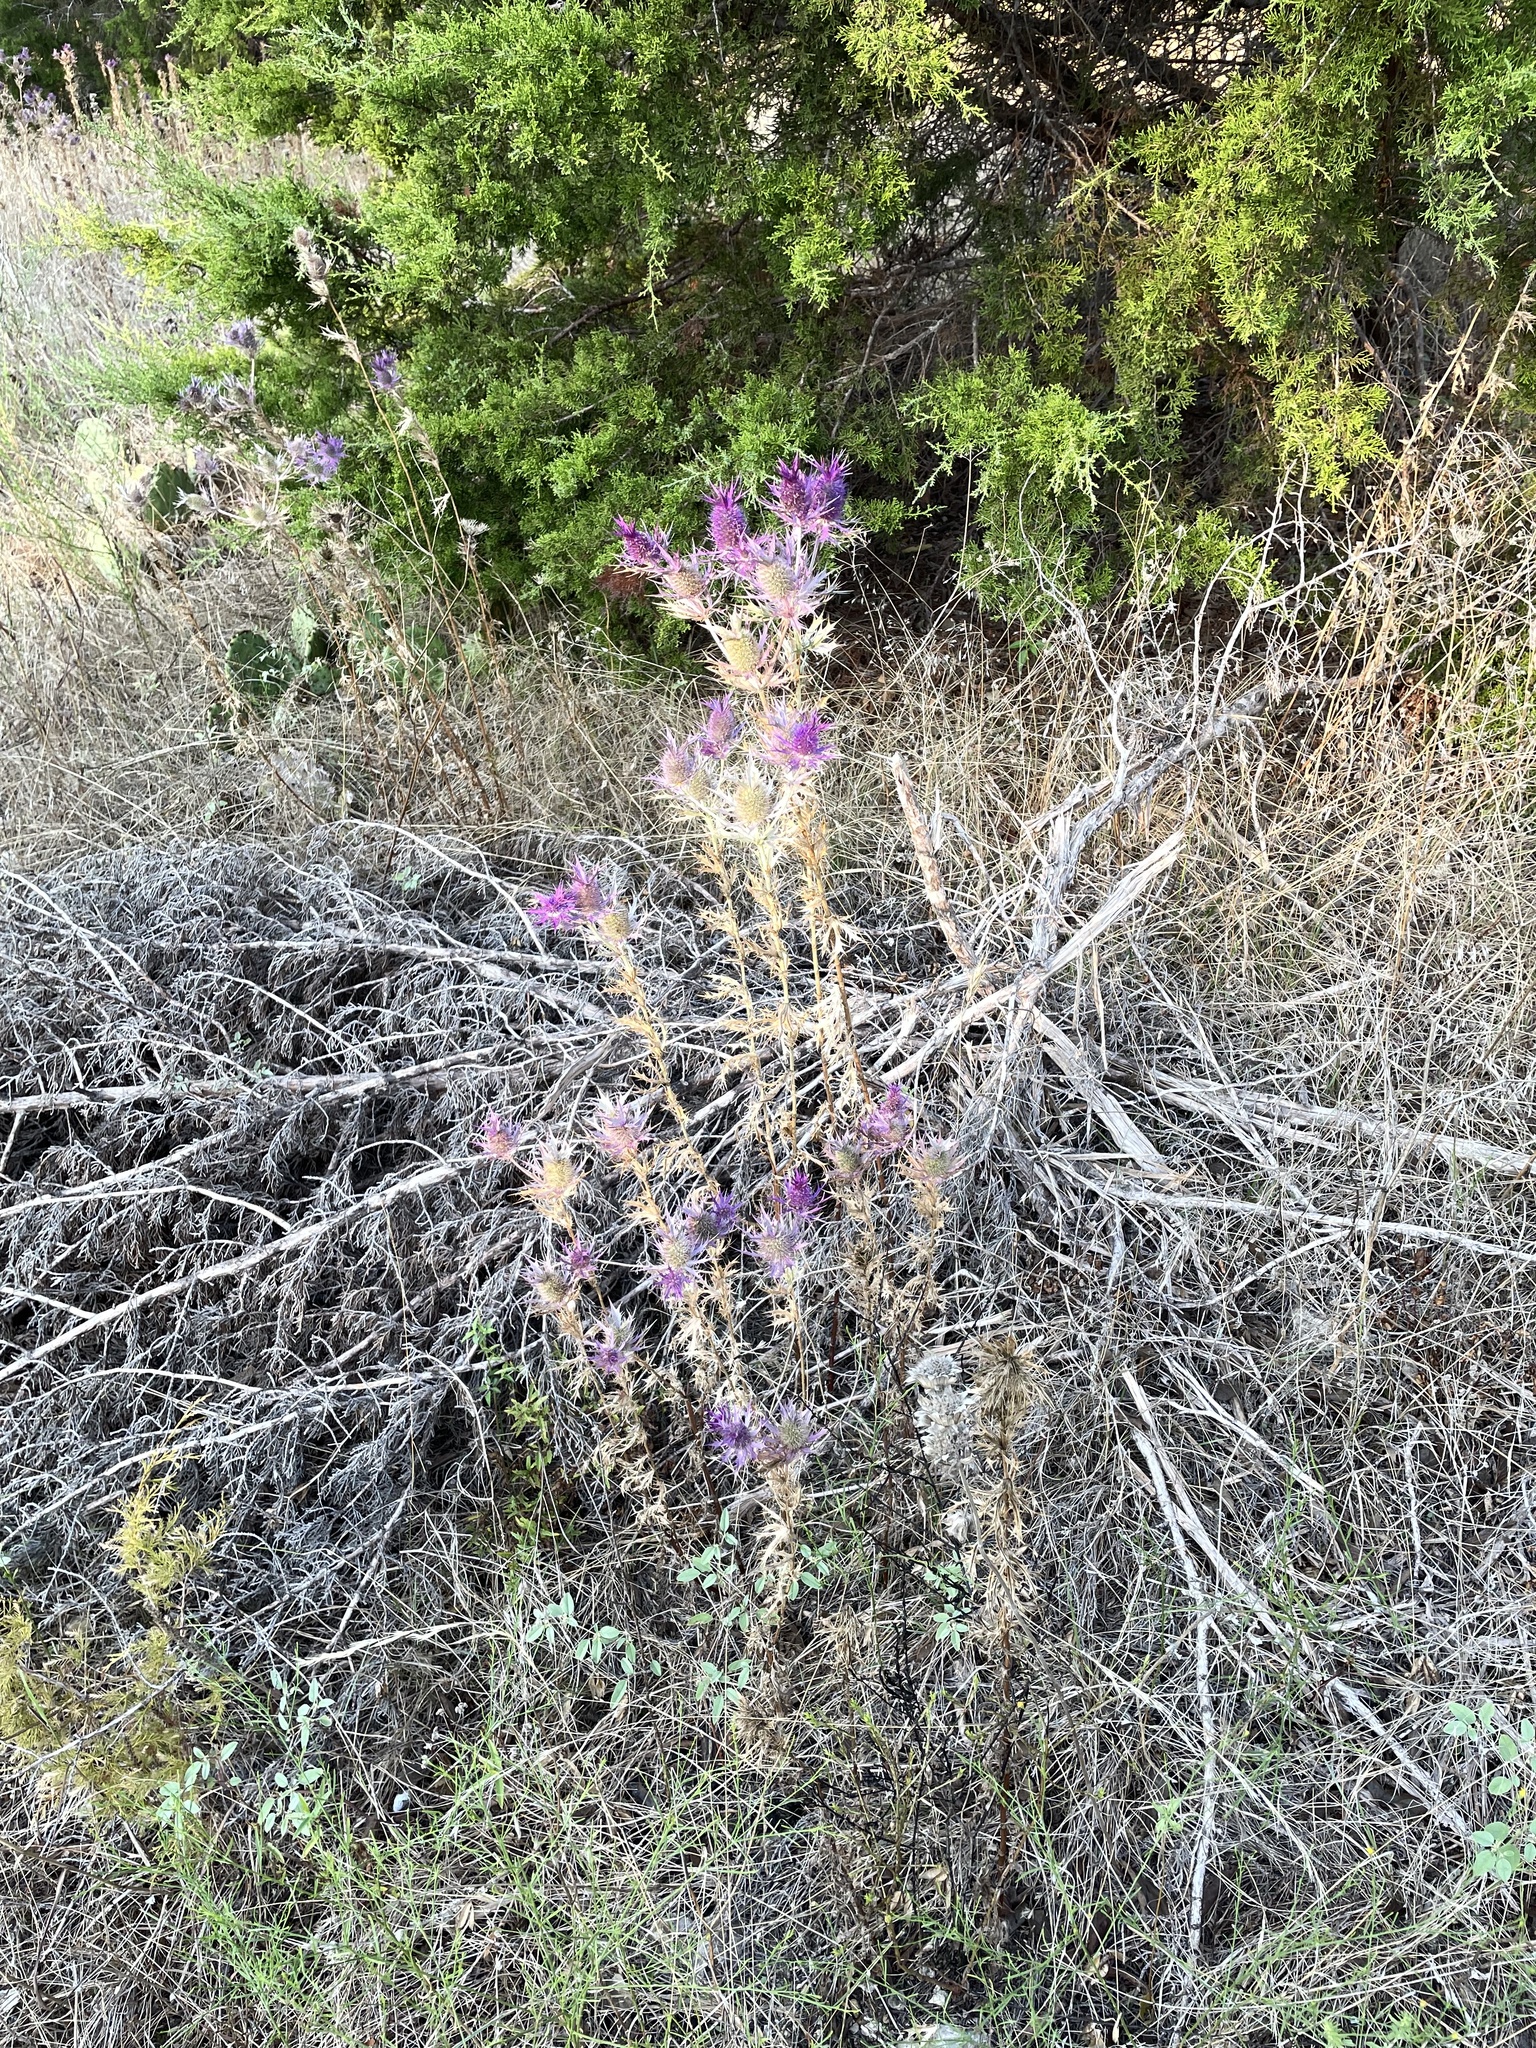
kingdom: Plantae
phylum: Tracheophyta
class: Magnoliopsida
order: Apiales
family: Apiaceae
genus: Eryngium
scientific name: Eryngium leavenworthii
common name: Leavenworth's eryngo
